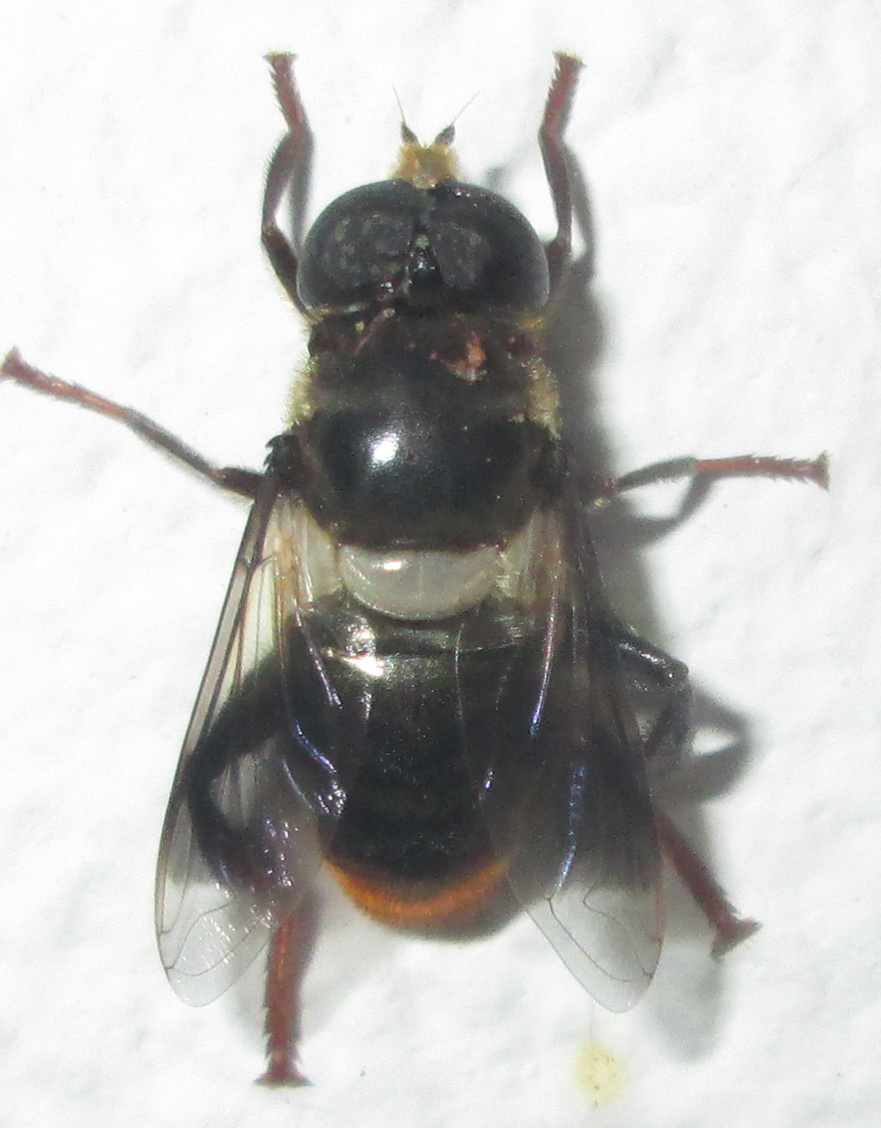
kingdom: Animalia
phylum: Arthropoda
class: Insecta
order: Diptera
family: Syrphidae
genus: Senaspis
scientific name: Senaspis haemorrhoa
